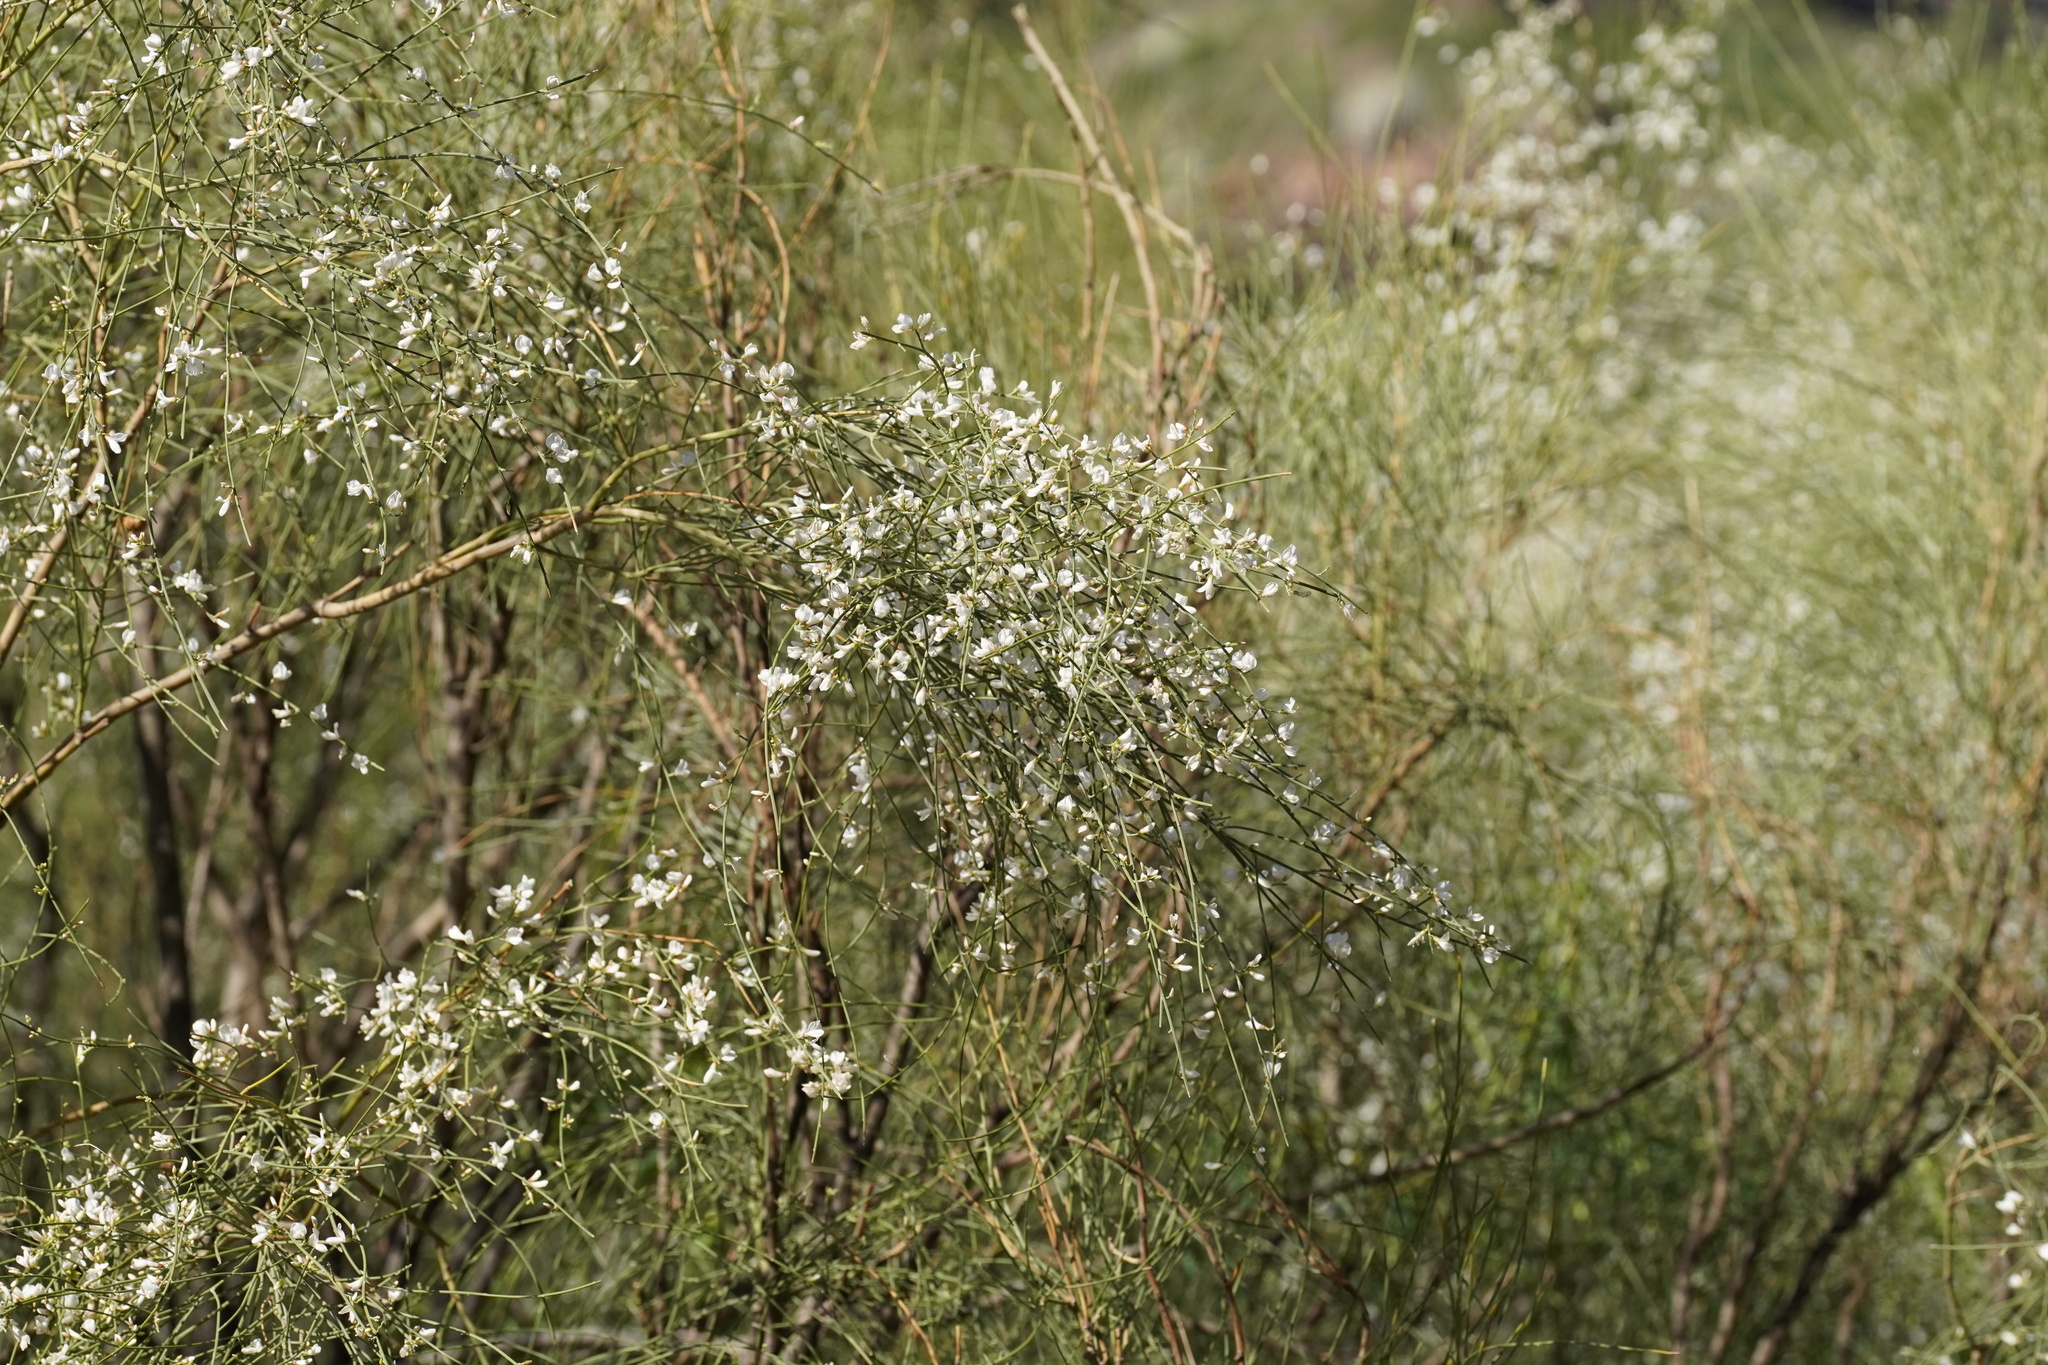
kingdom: Plantae
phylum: Tracheophyta
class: Magnoliopsida
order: Fabales
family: Fabaceae
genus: Retama
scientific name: Retama rhodorhizoides
